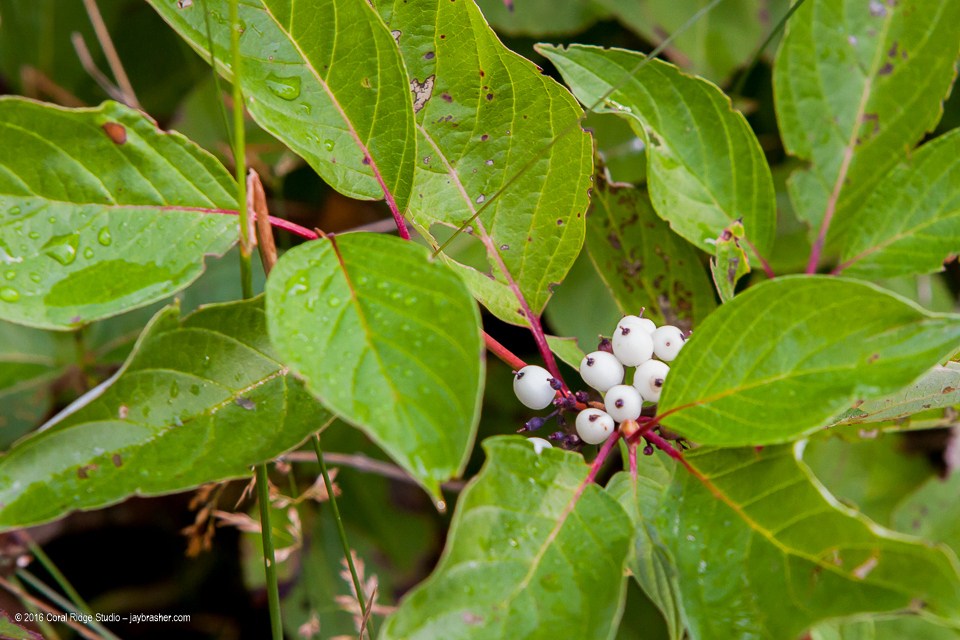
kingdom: Plantae
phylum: Tracheophyta
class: Magnoliopsida
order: Cornales
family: Cornaceae
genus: Cornus
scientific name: Cornus sericea
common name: Red-osier dogwood
